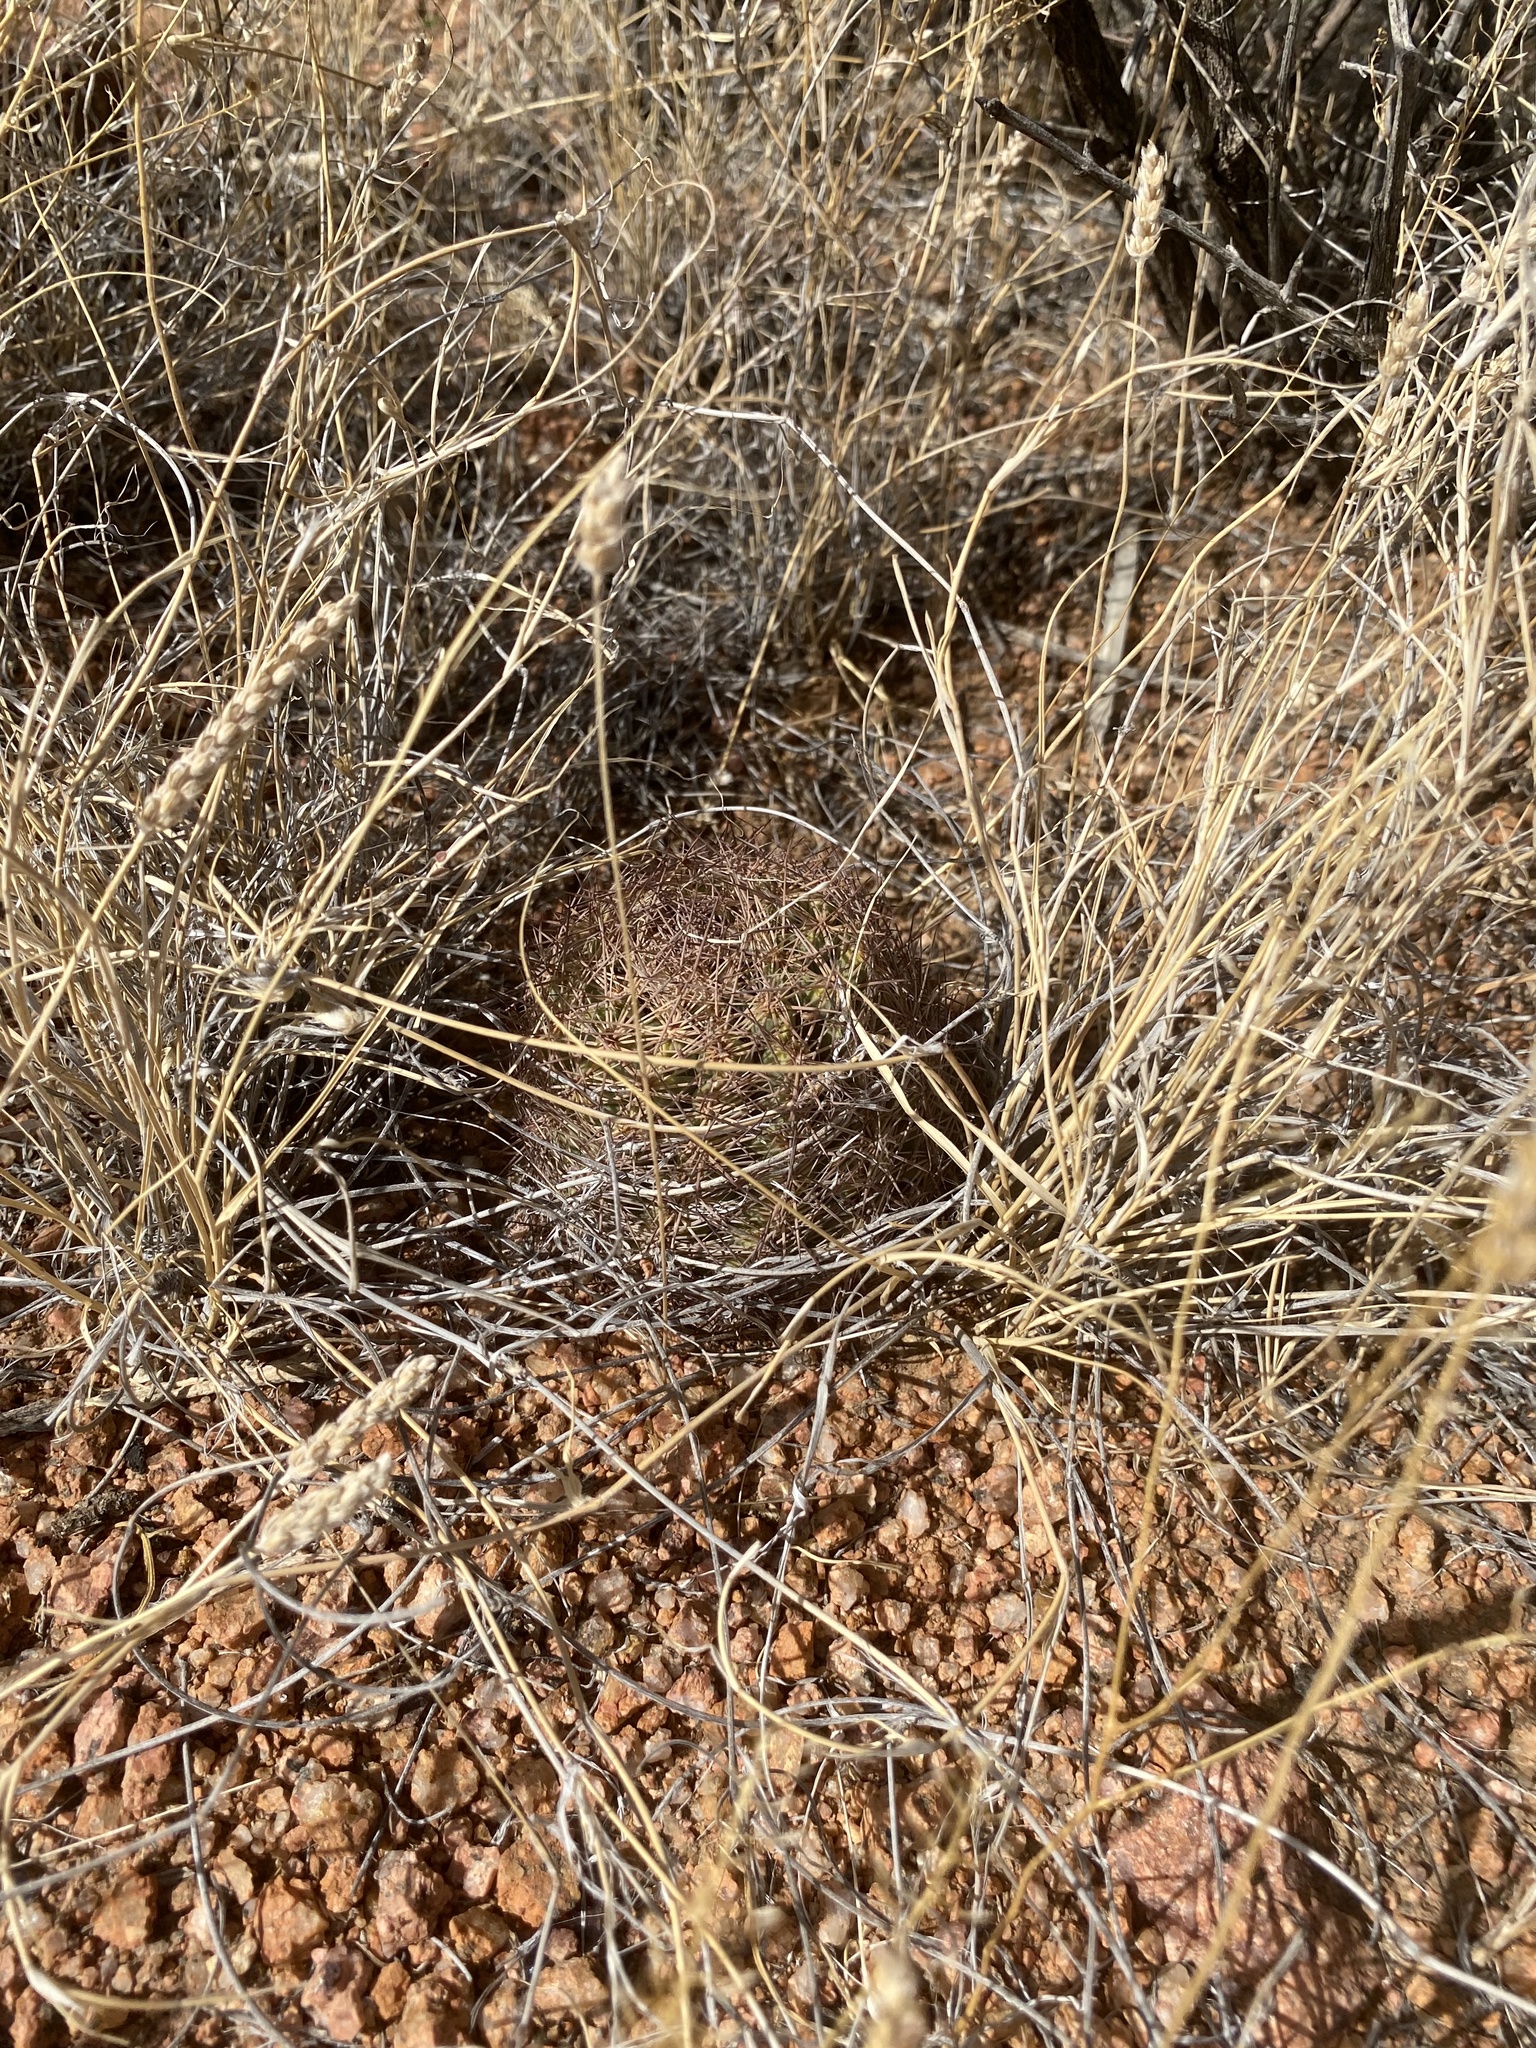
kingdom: Plantae
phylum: Tracheophyta
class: Magnoliopsida
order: Caryophyllales
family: Cactaceae
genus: Sclerocactus
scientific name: Sclerocactus intertextus
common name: White fish-hook cactus
